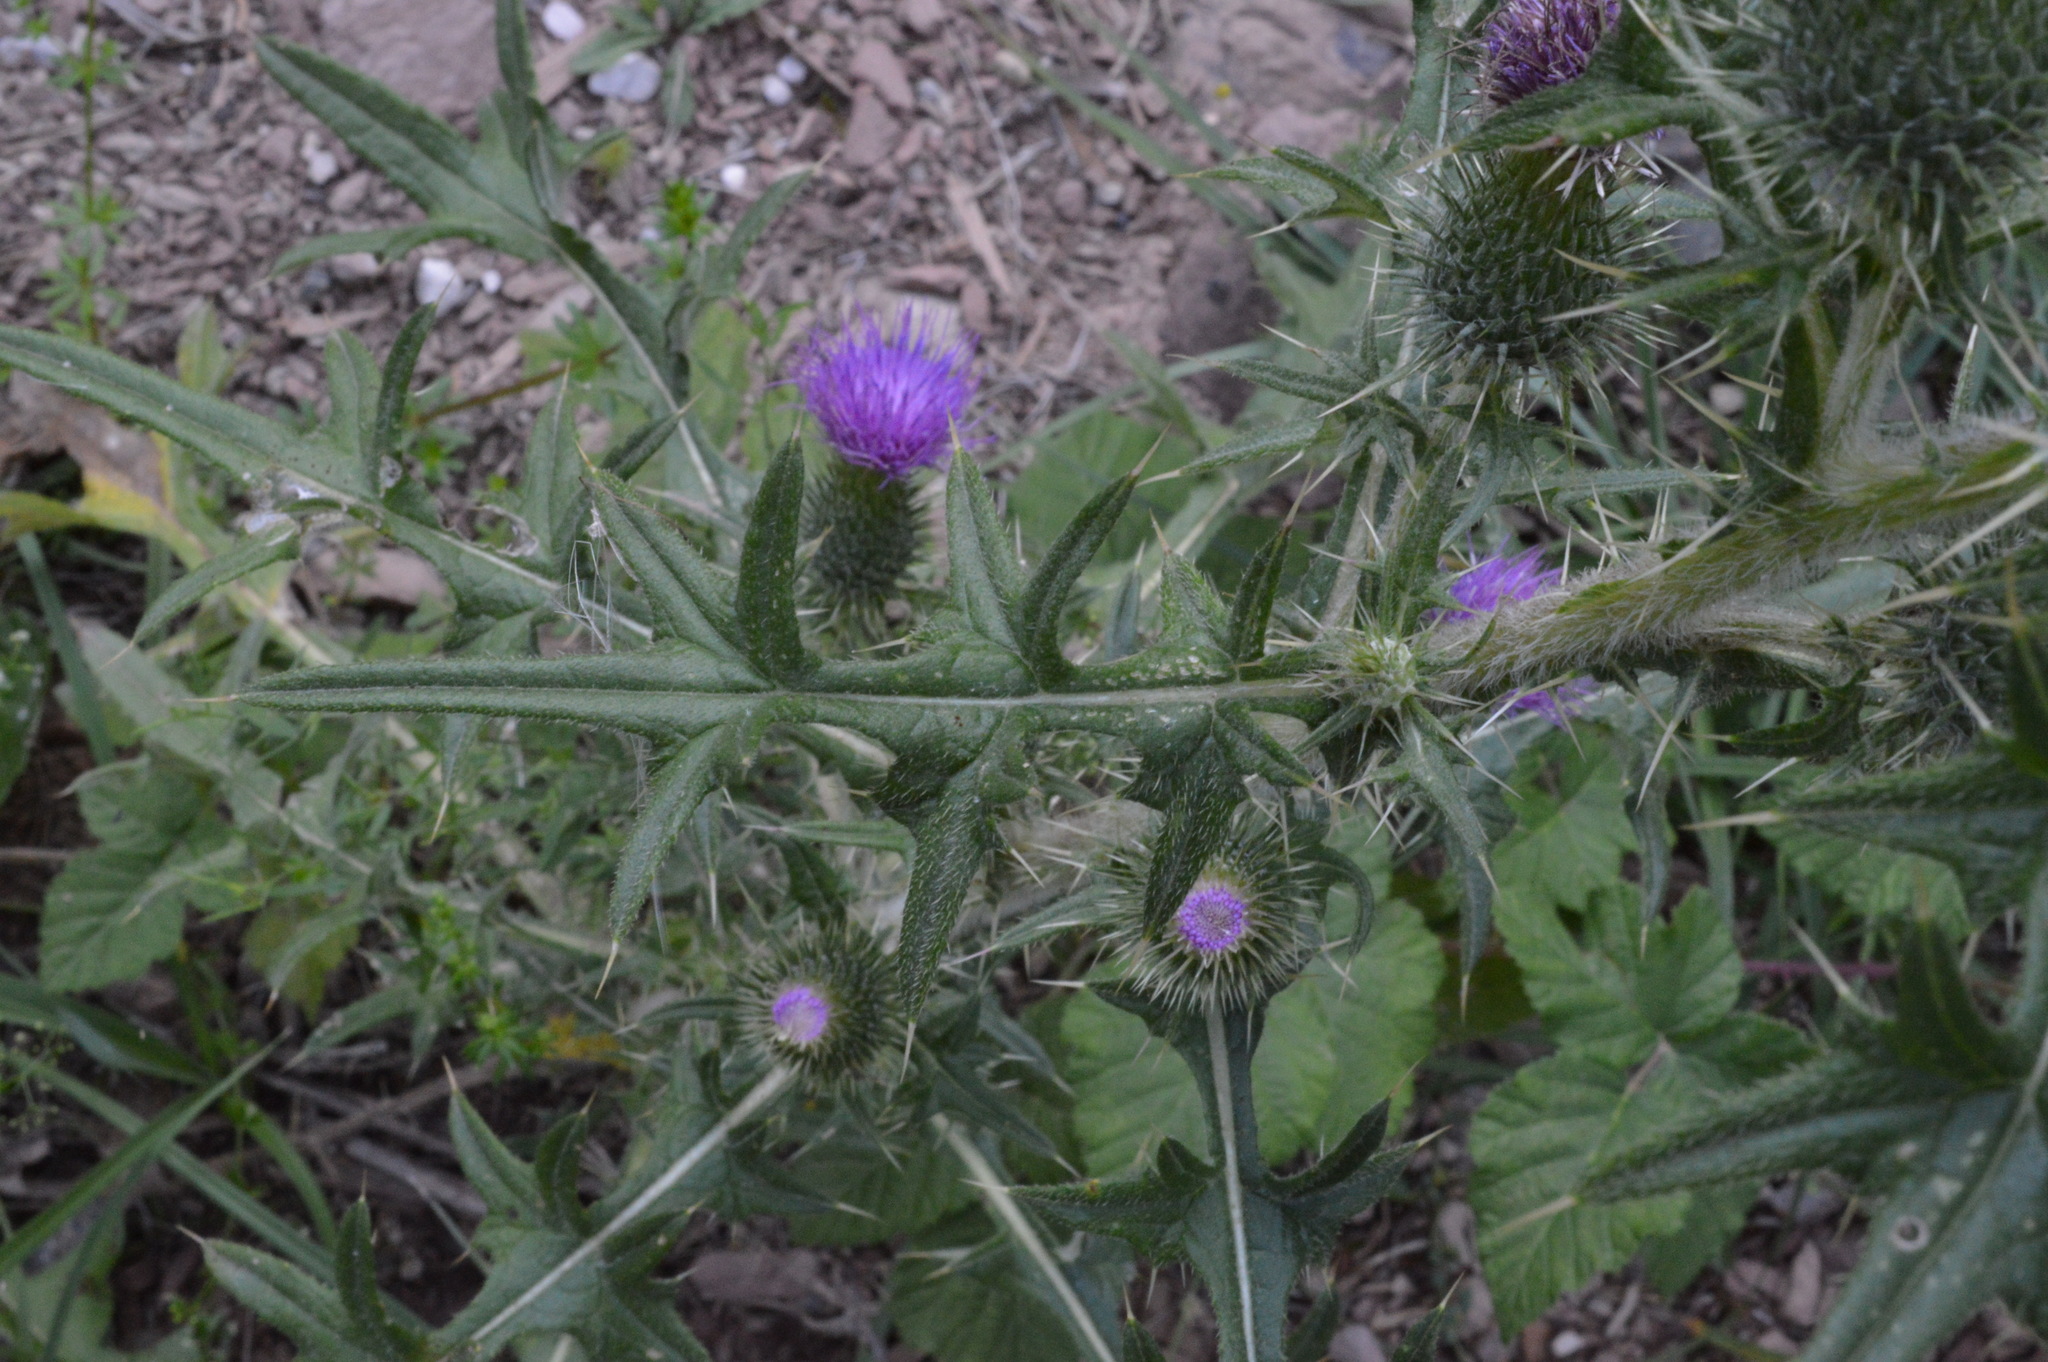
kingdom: Plantae
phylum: Tracheophyta
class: Magnoliopsida
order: Asterales
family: Asteraceae
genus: Cirsium
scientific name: Cirsium vulgare
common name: Bull thistle
